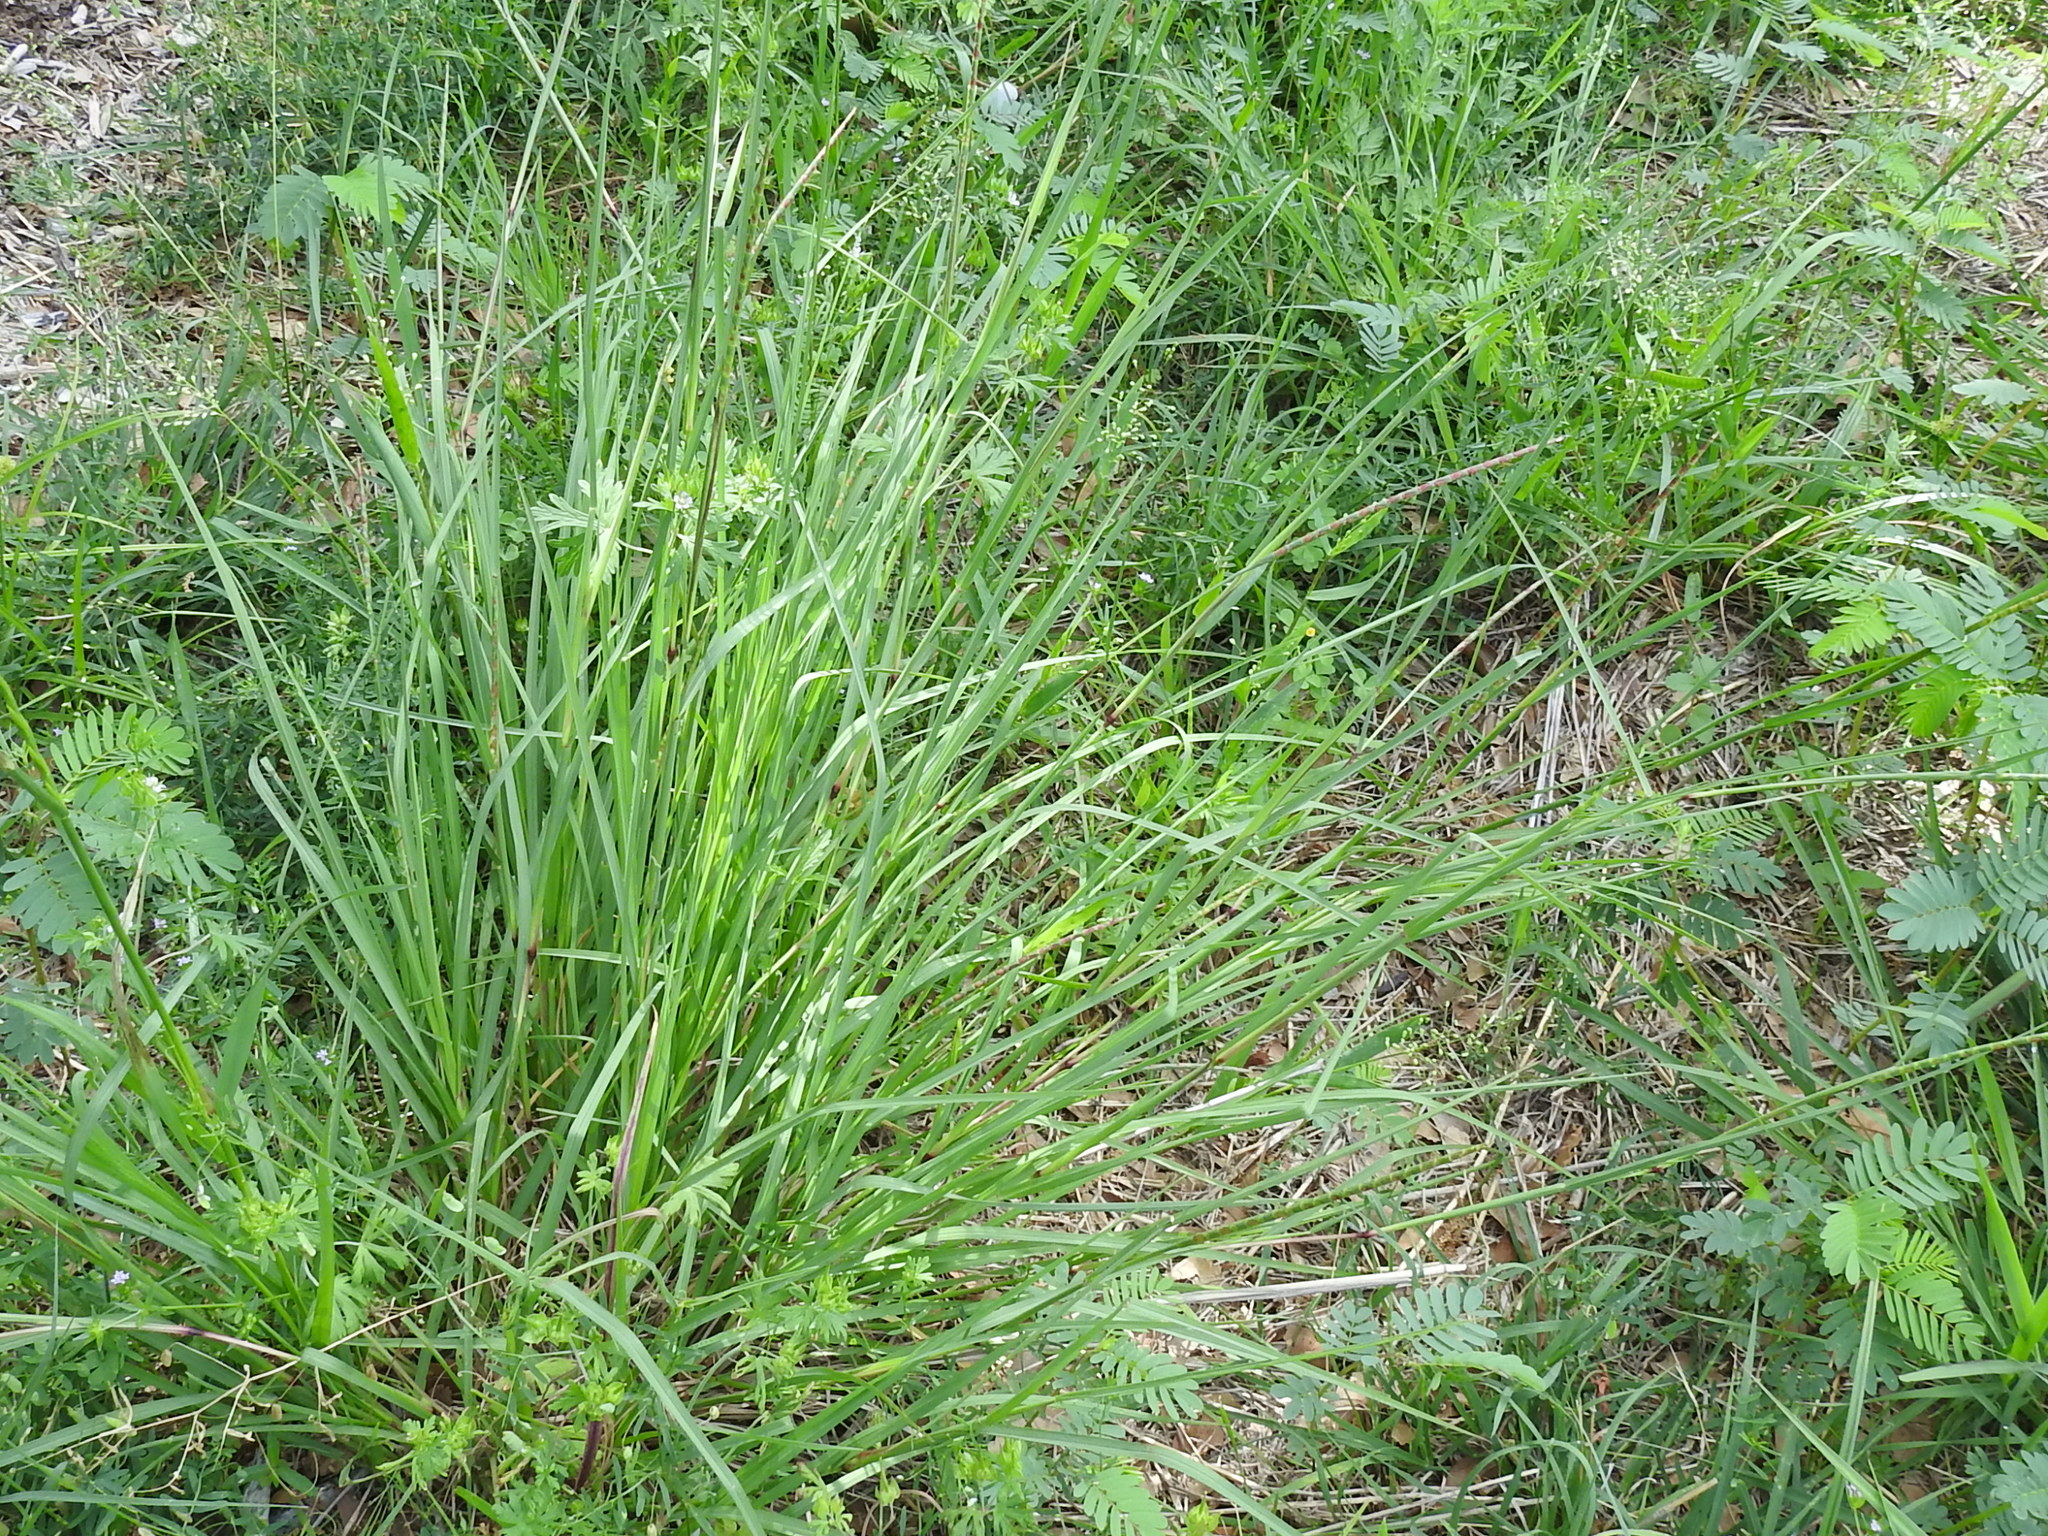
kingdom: Plantae
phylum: Tracheophyta
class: Liliopsida
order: Poales
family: Poaceae
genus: Rottboellia
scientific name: Rottboellia campestris
